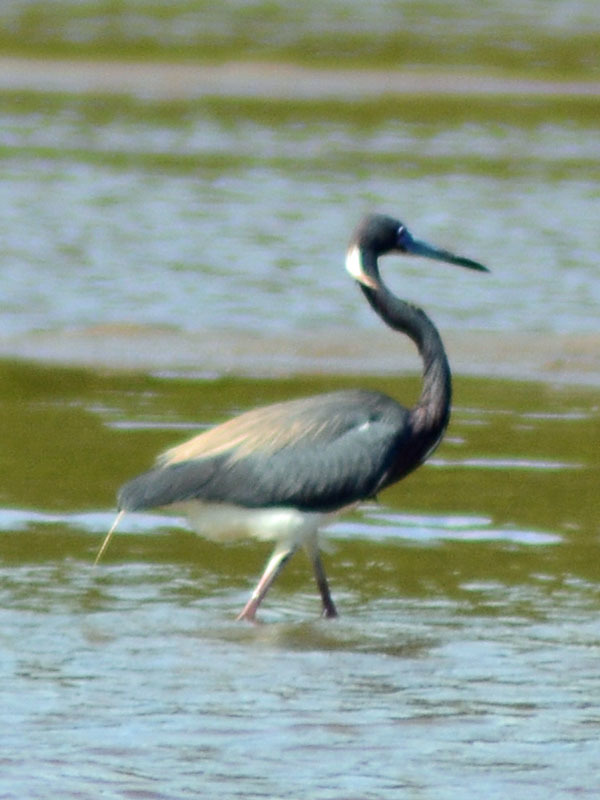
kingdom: Animalia
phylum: Chordata
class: Aves
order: Pelecaniformes
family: Ardeidae
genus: Egretta
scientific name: Egretta tricolor
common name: Tricolored heron
